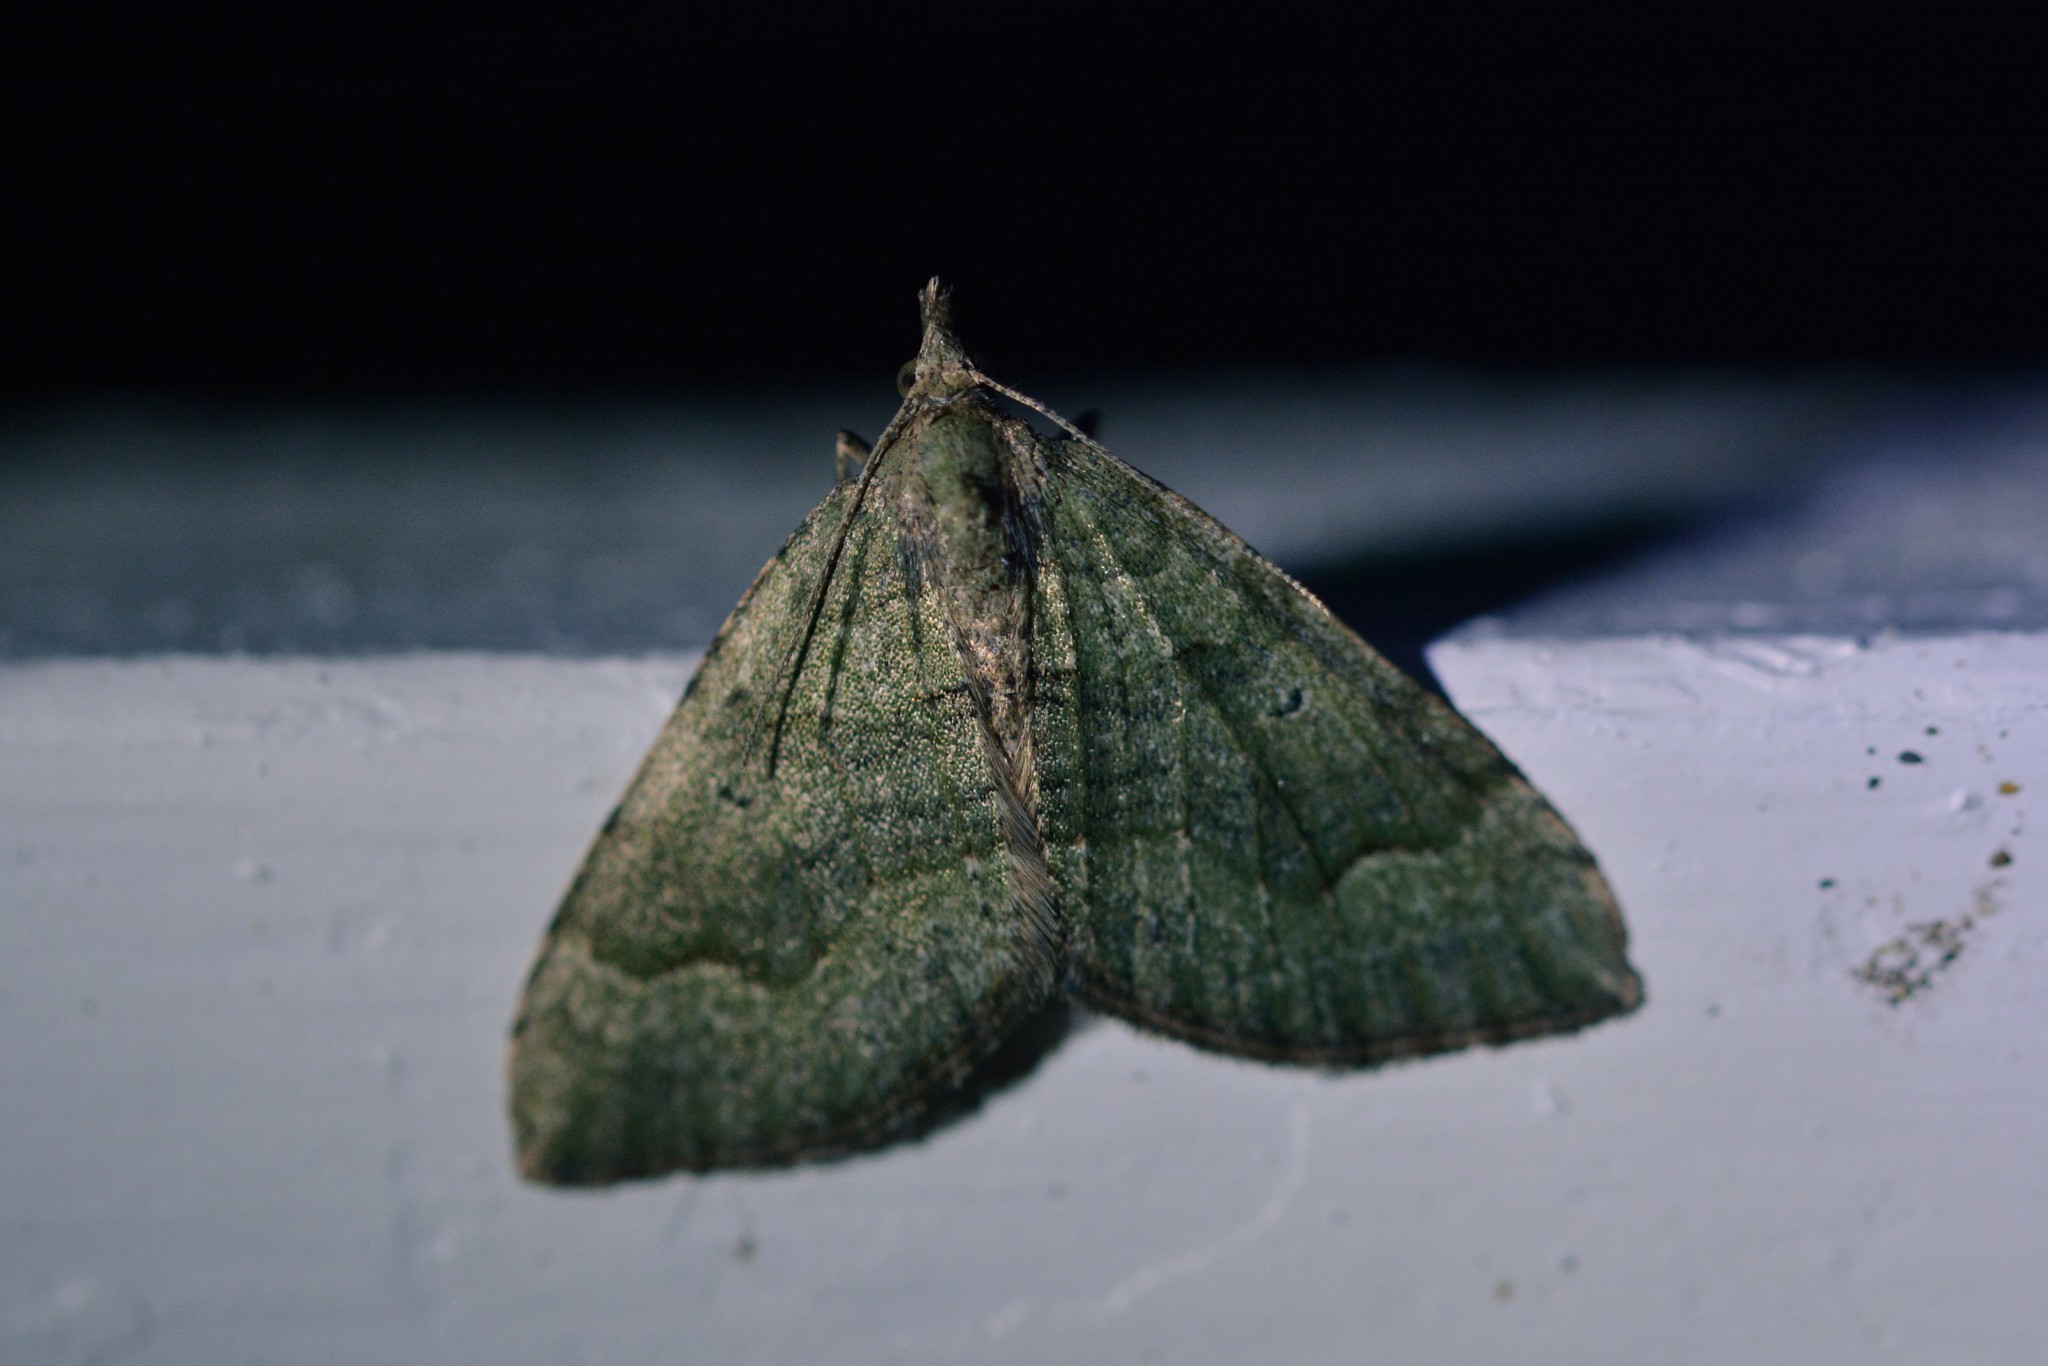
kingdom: Animalia
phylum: Arthropoda
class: Insecta
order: Lepidoptera
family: Geometridae
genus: Epyaxa
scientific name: Epyaxa rosearia
